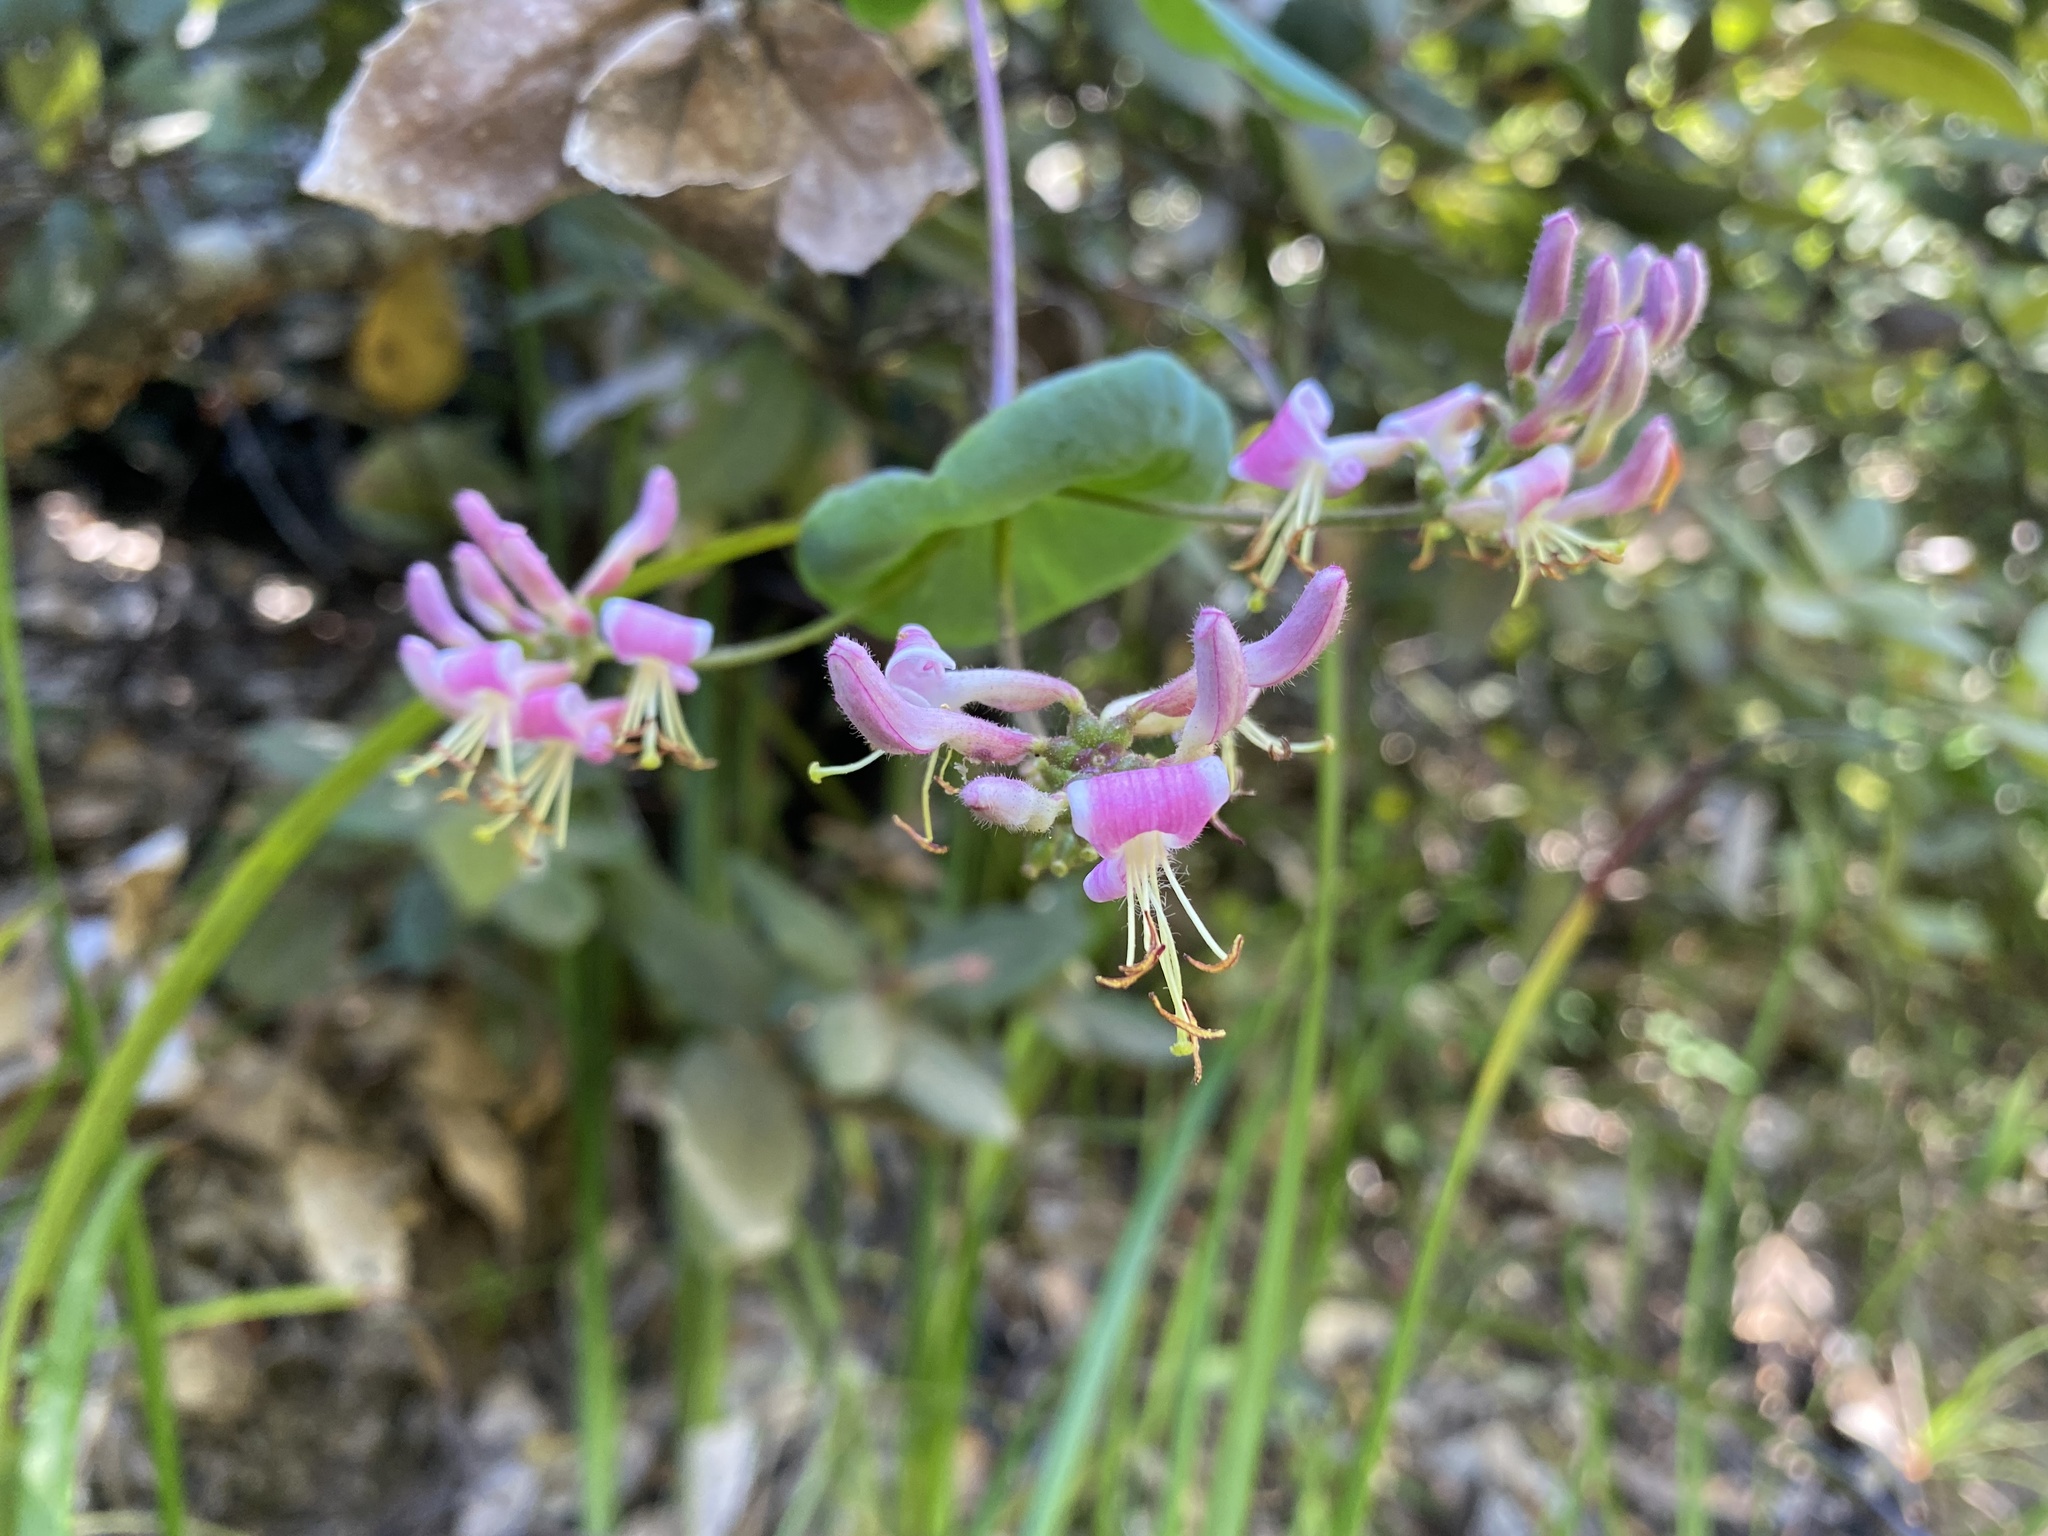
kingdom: Plantae
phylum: Tracheophyta
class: Magnoliopsida
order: Dipsacales
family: Caprifoliaceae
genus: Lonicera
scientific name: Lonicera hispidula
